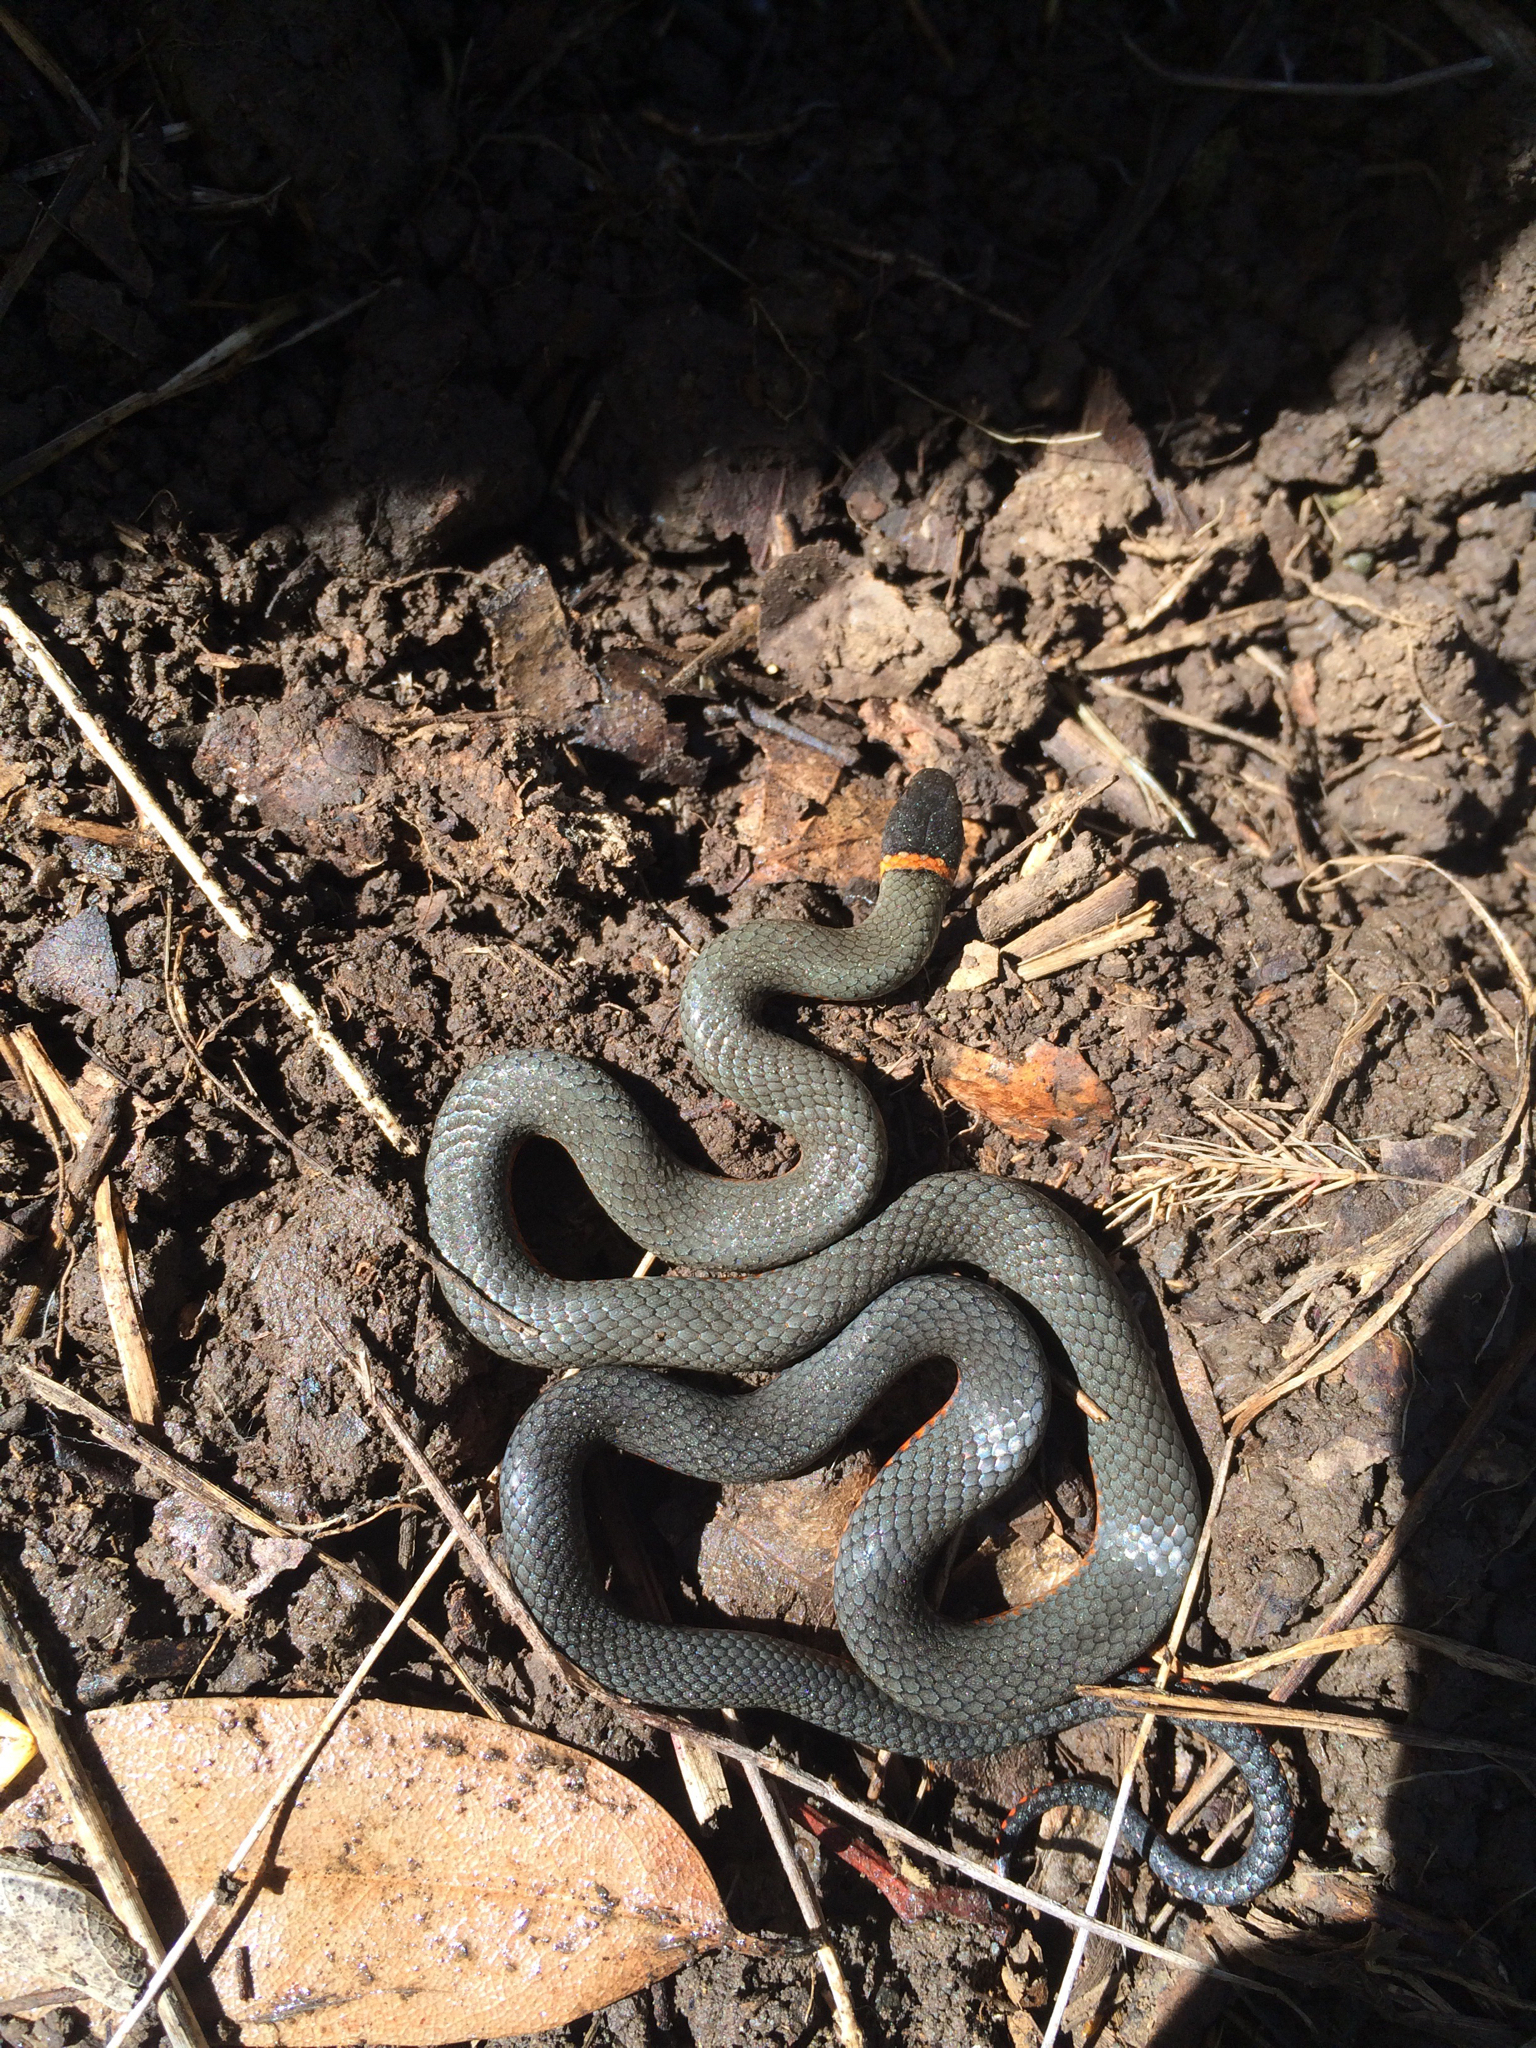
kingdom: Animalia
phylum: Chordata
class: Squamata
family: Colubridae
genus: Diadophis
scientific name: Diadophis punctatus
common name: Ringneck snake
